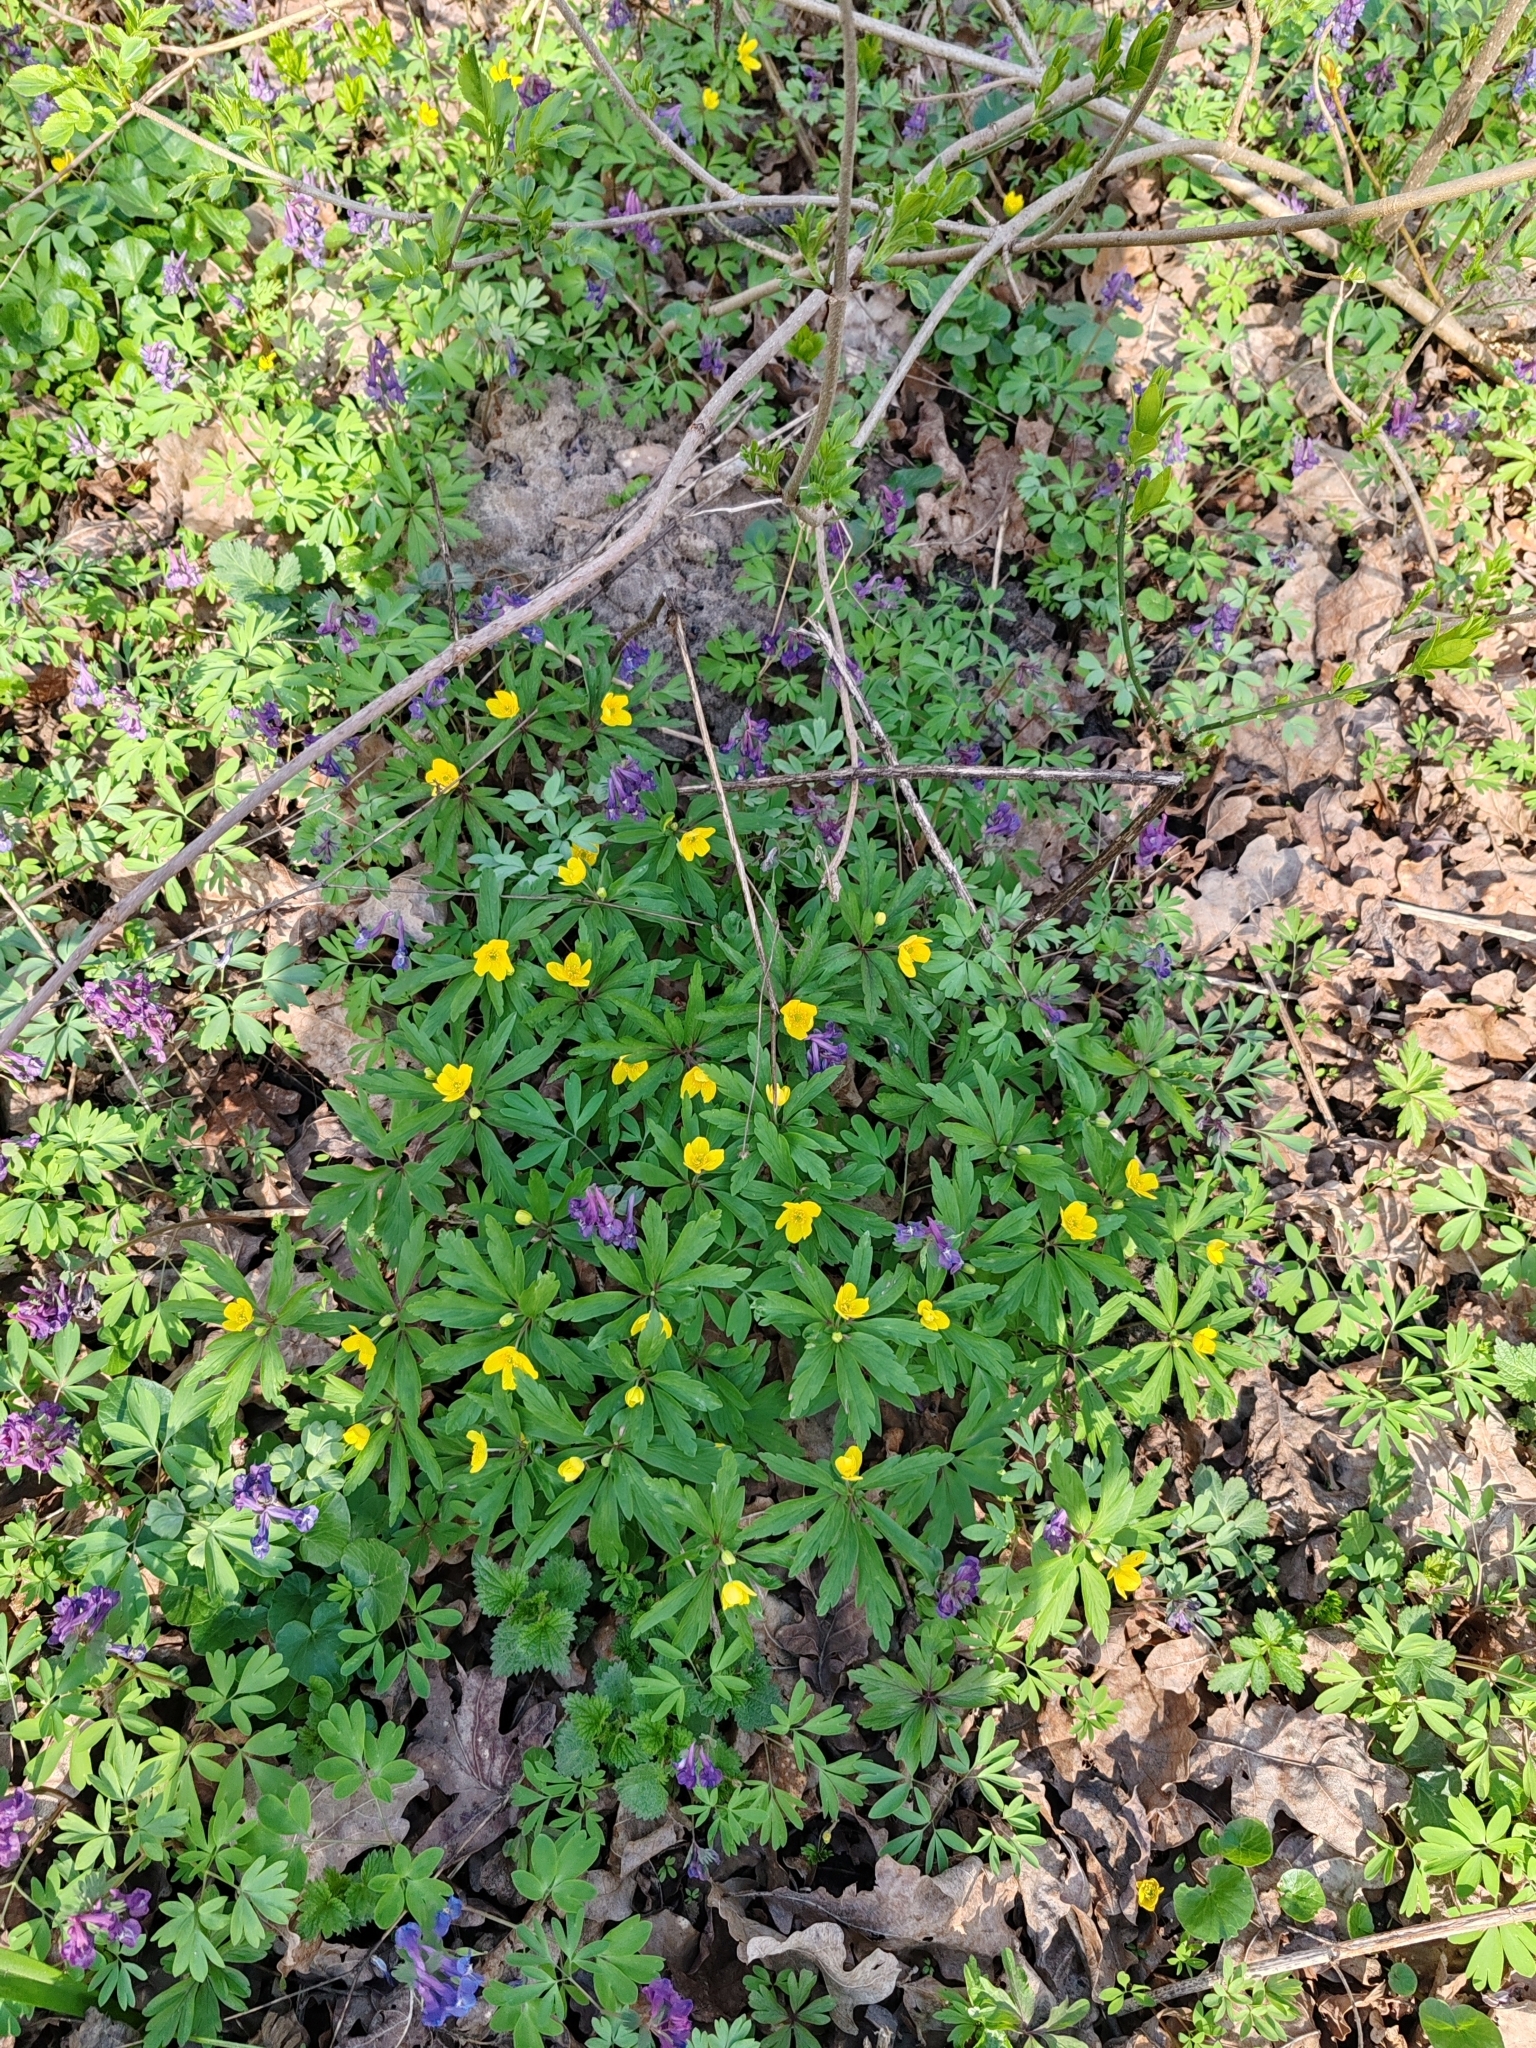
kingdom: Plantae
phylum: Tracheophyta
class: Magnoliopsida
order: Ranunculales
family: Ranunculaceae
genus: Anemone
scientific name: Anemone ranunculoides
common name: Yellow anemone
